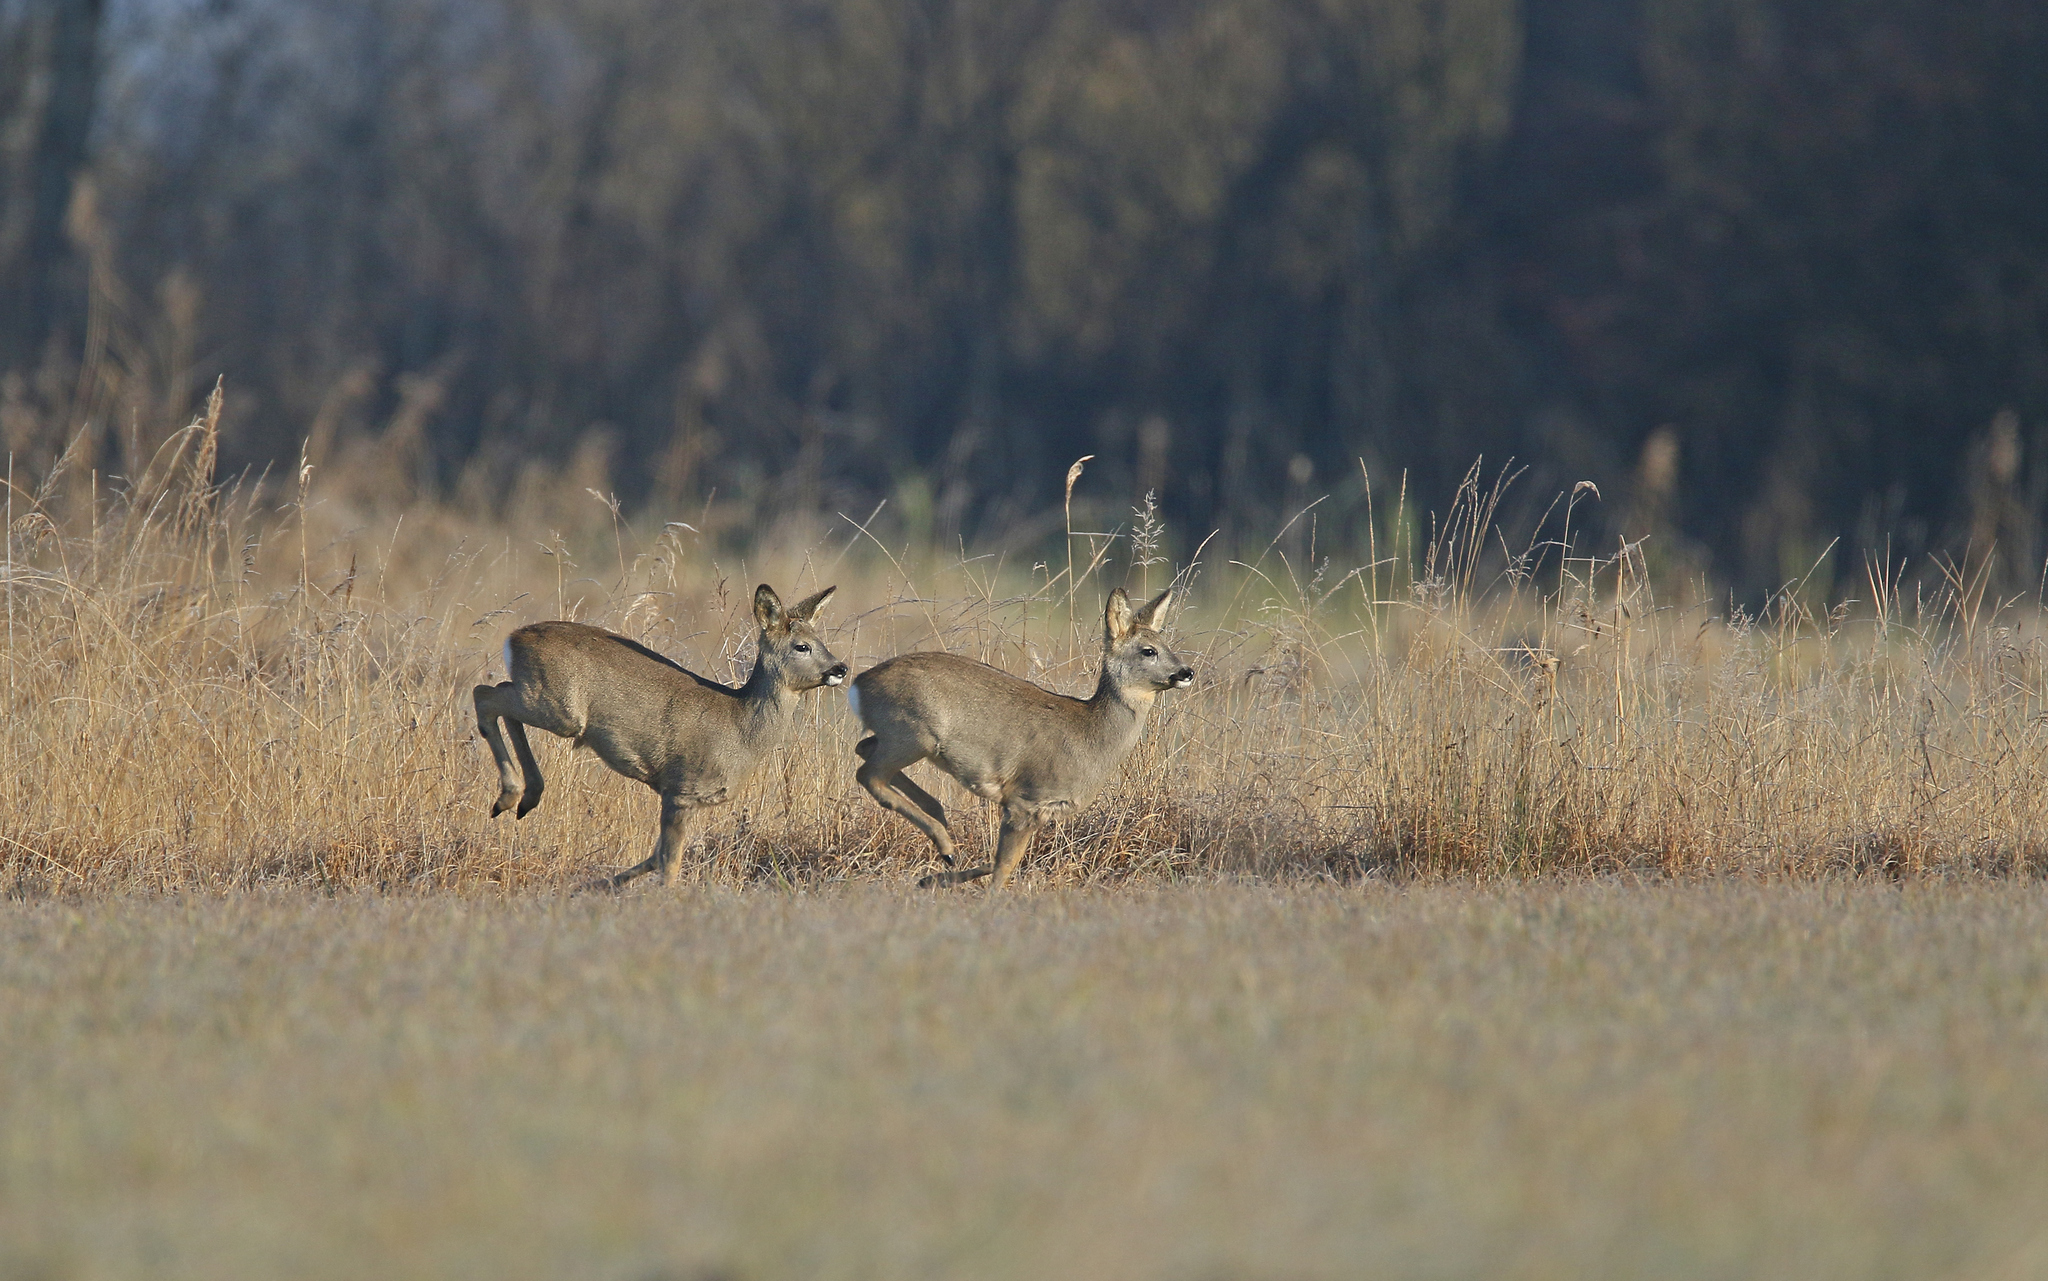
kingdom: Animalia
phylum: Chordata
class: Mammalia
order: Artiodactyla
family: Cervidae
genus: Capreolus
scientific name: Capreolus capreolus
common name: Western roe deer
